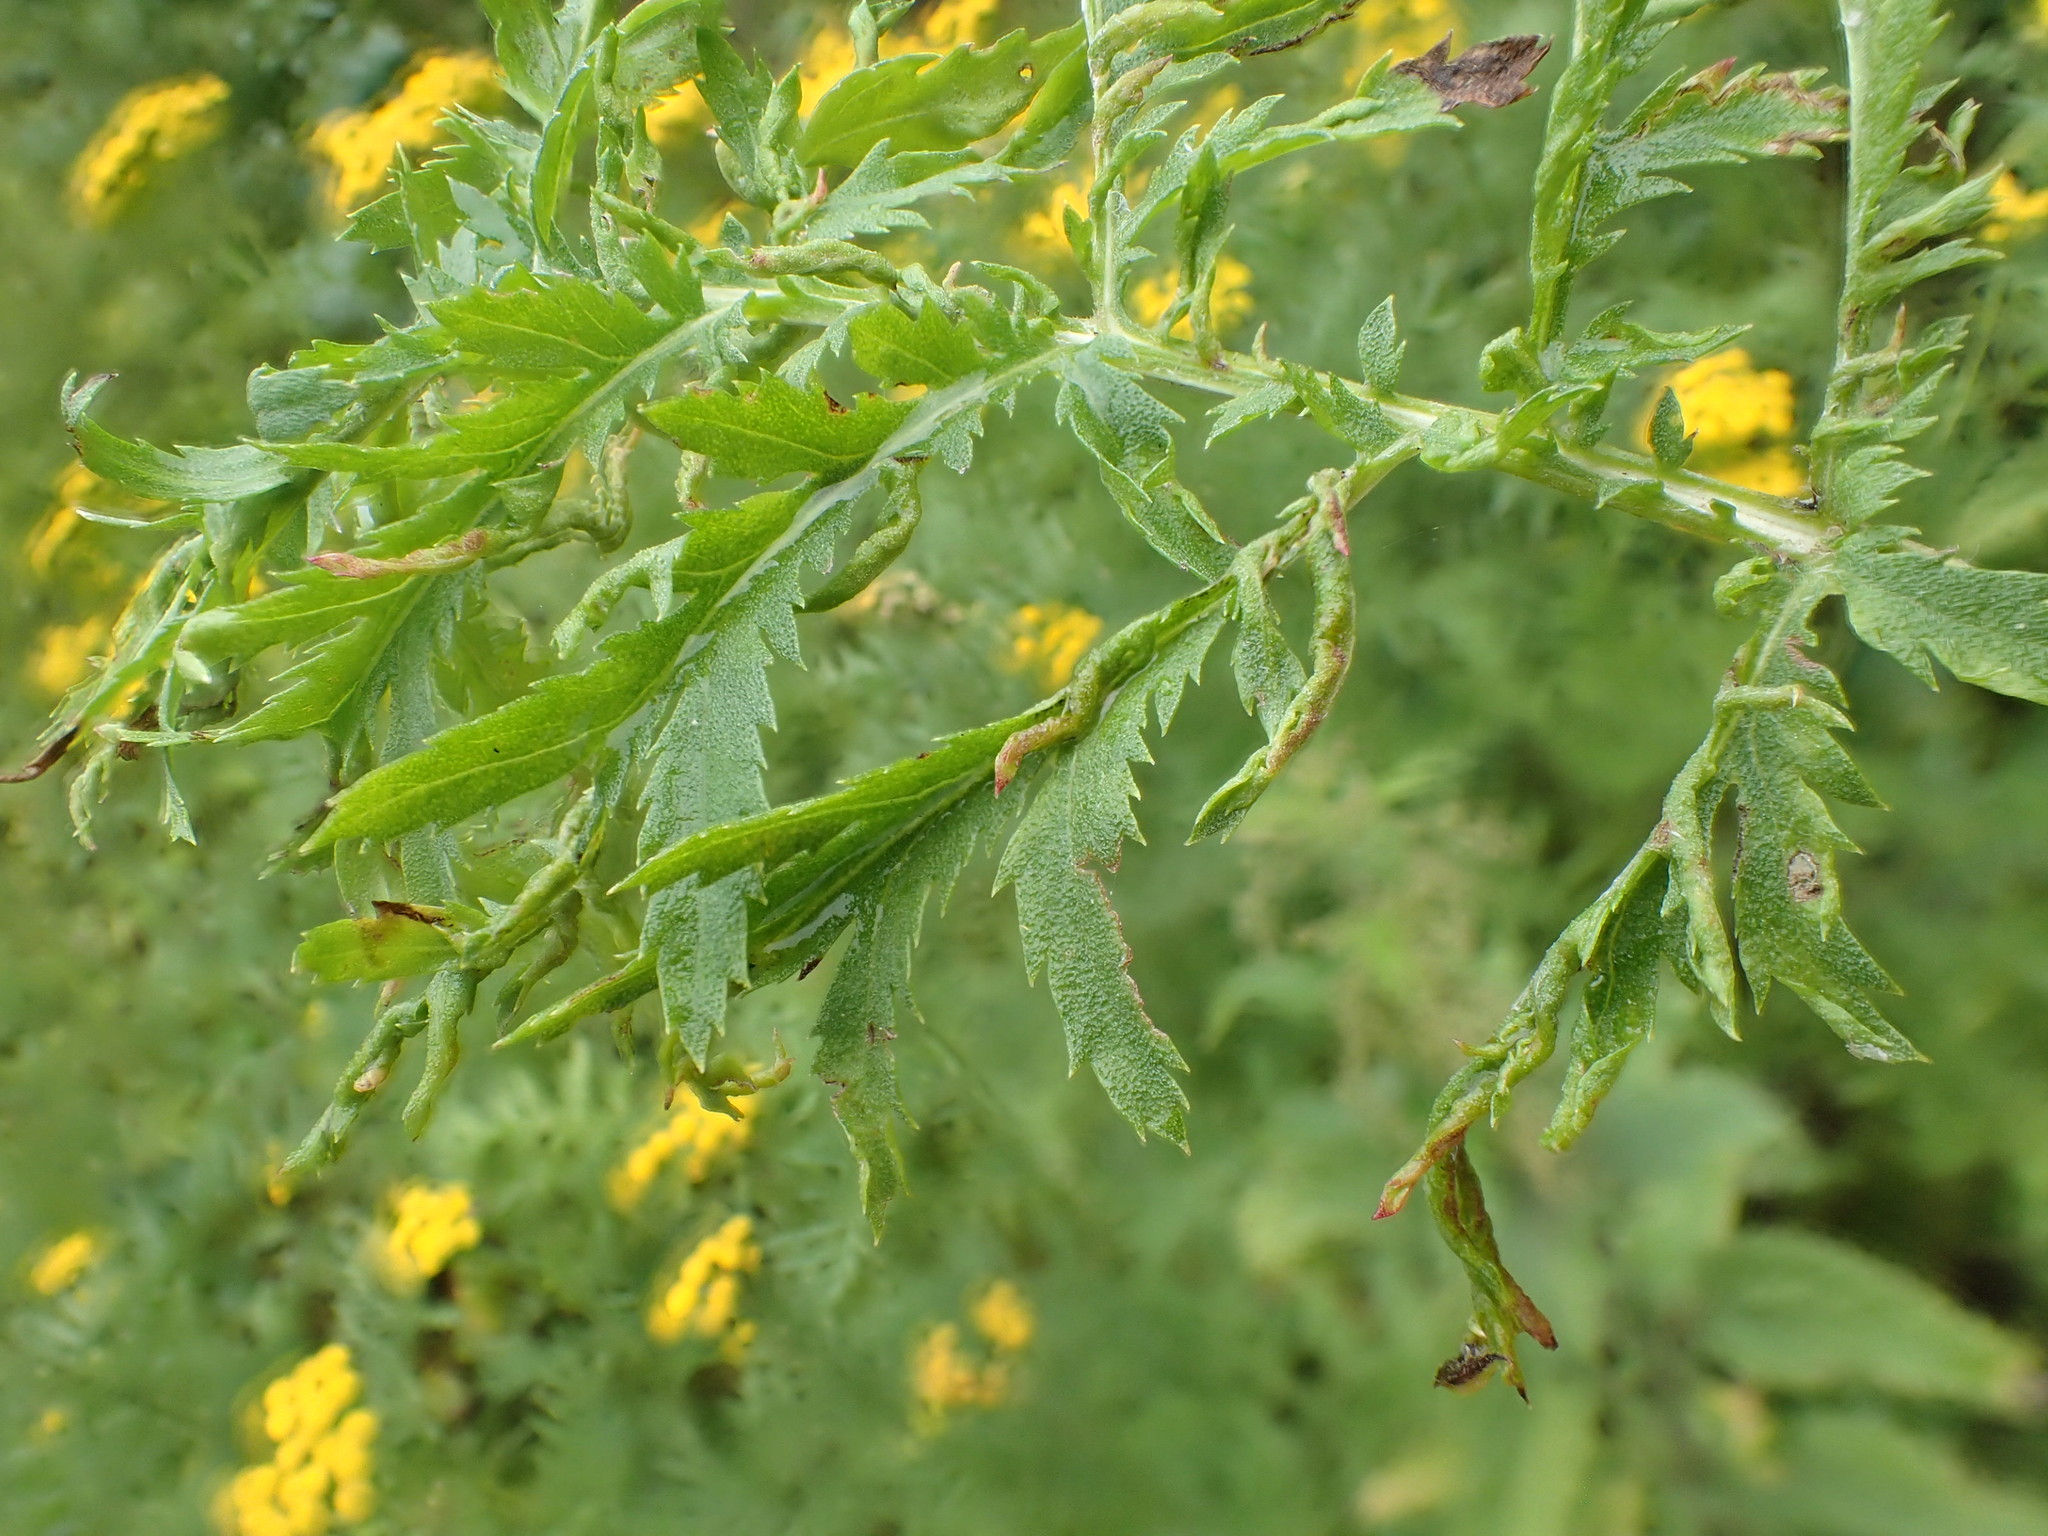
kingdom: Animalia
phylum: Arthropoda
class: Arachnida
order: Trombidiformes
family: Eriophyidae
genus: Aceria
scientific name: Aceria tuberculata
